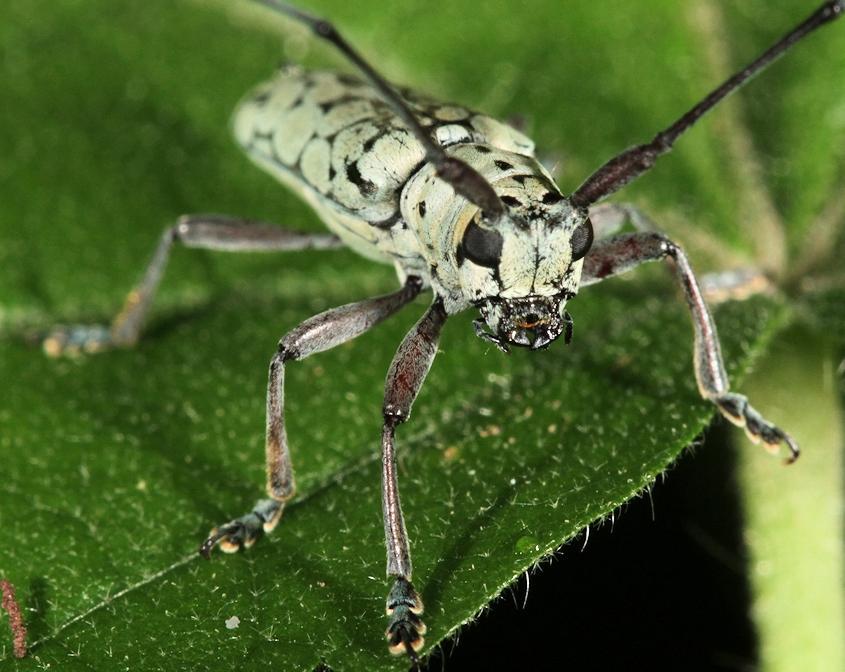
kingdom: Animalia
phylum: Arthropoda
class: Insecta
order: Coleoptera
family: Cerambycidae
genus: Prosopocera
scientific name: Prosopocera maculosa
